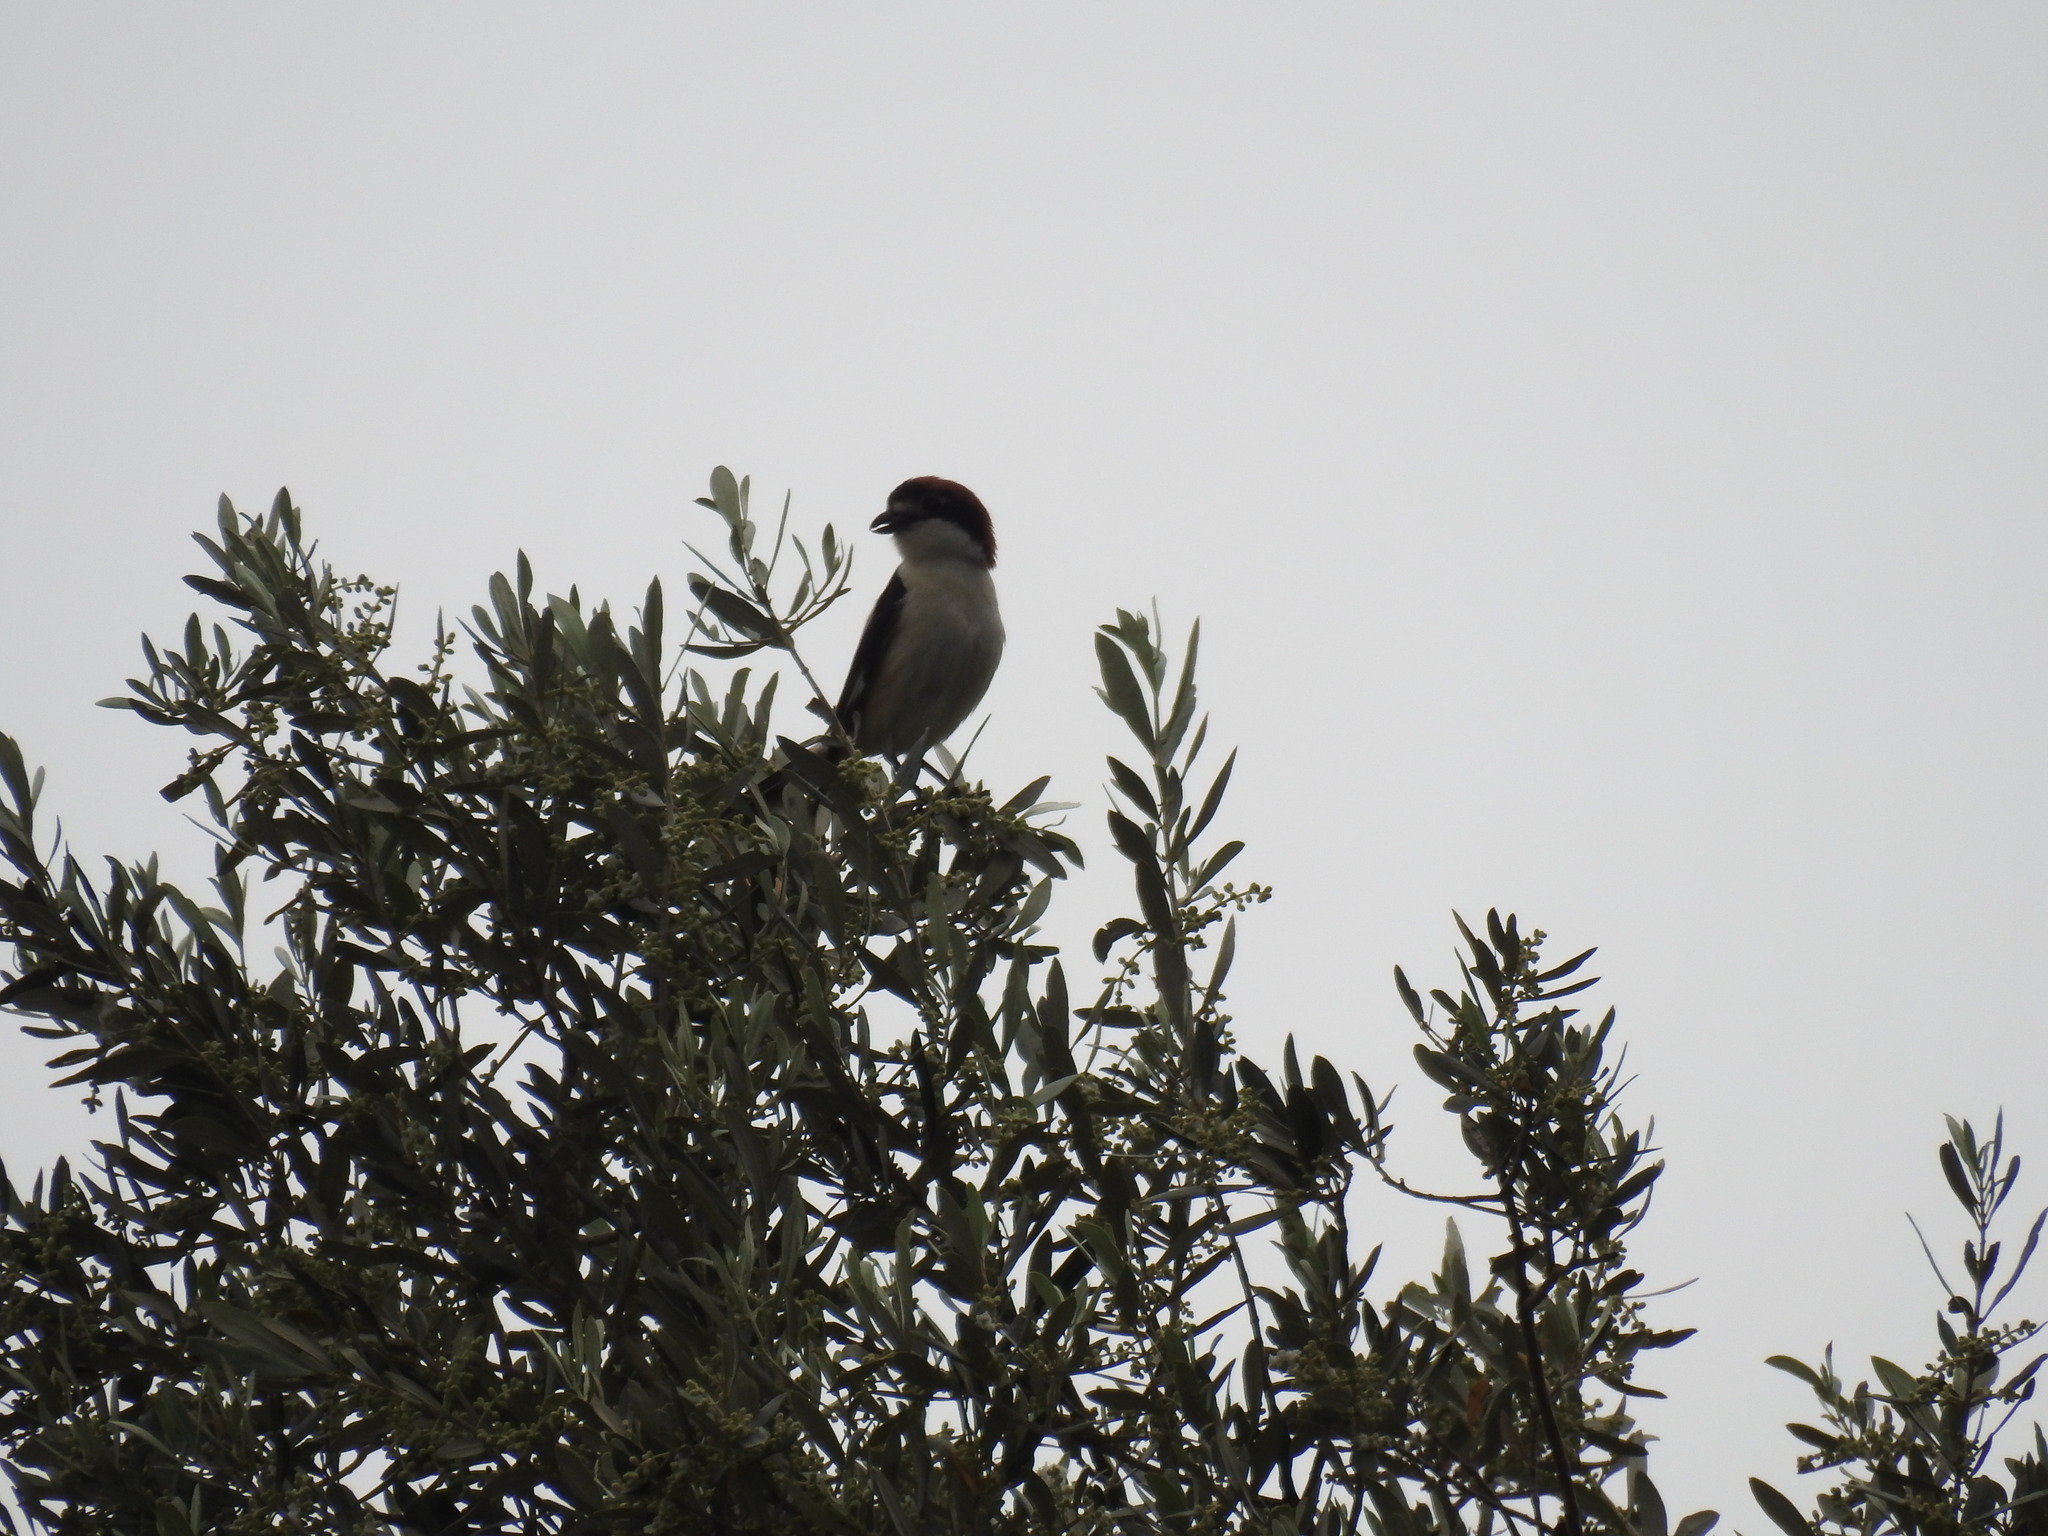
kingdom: Animalia
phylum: Chordata
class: Aves
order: Passeriformes
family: Laniidae
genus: Lanius
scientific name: Lanius senator
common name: Woodchat shrike
